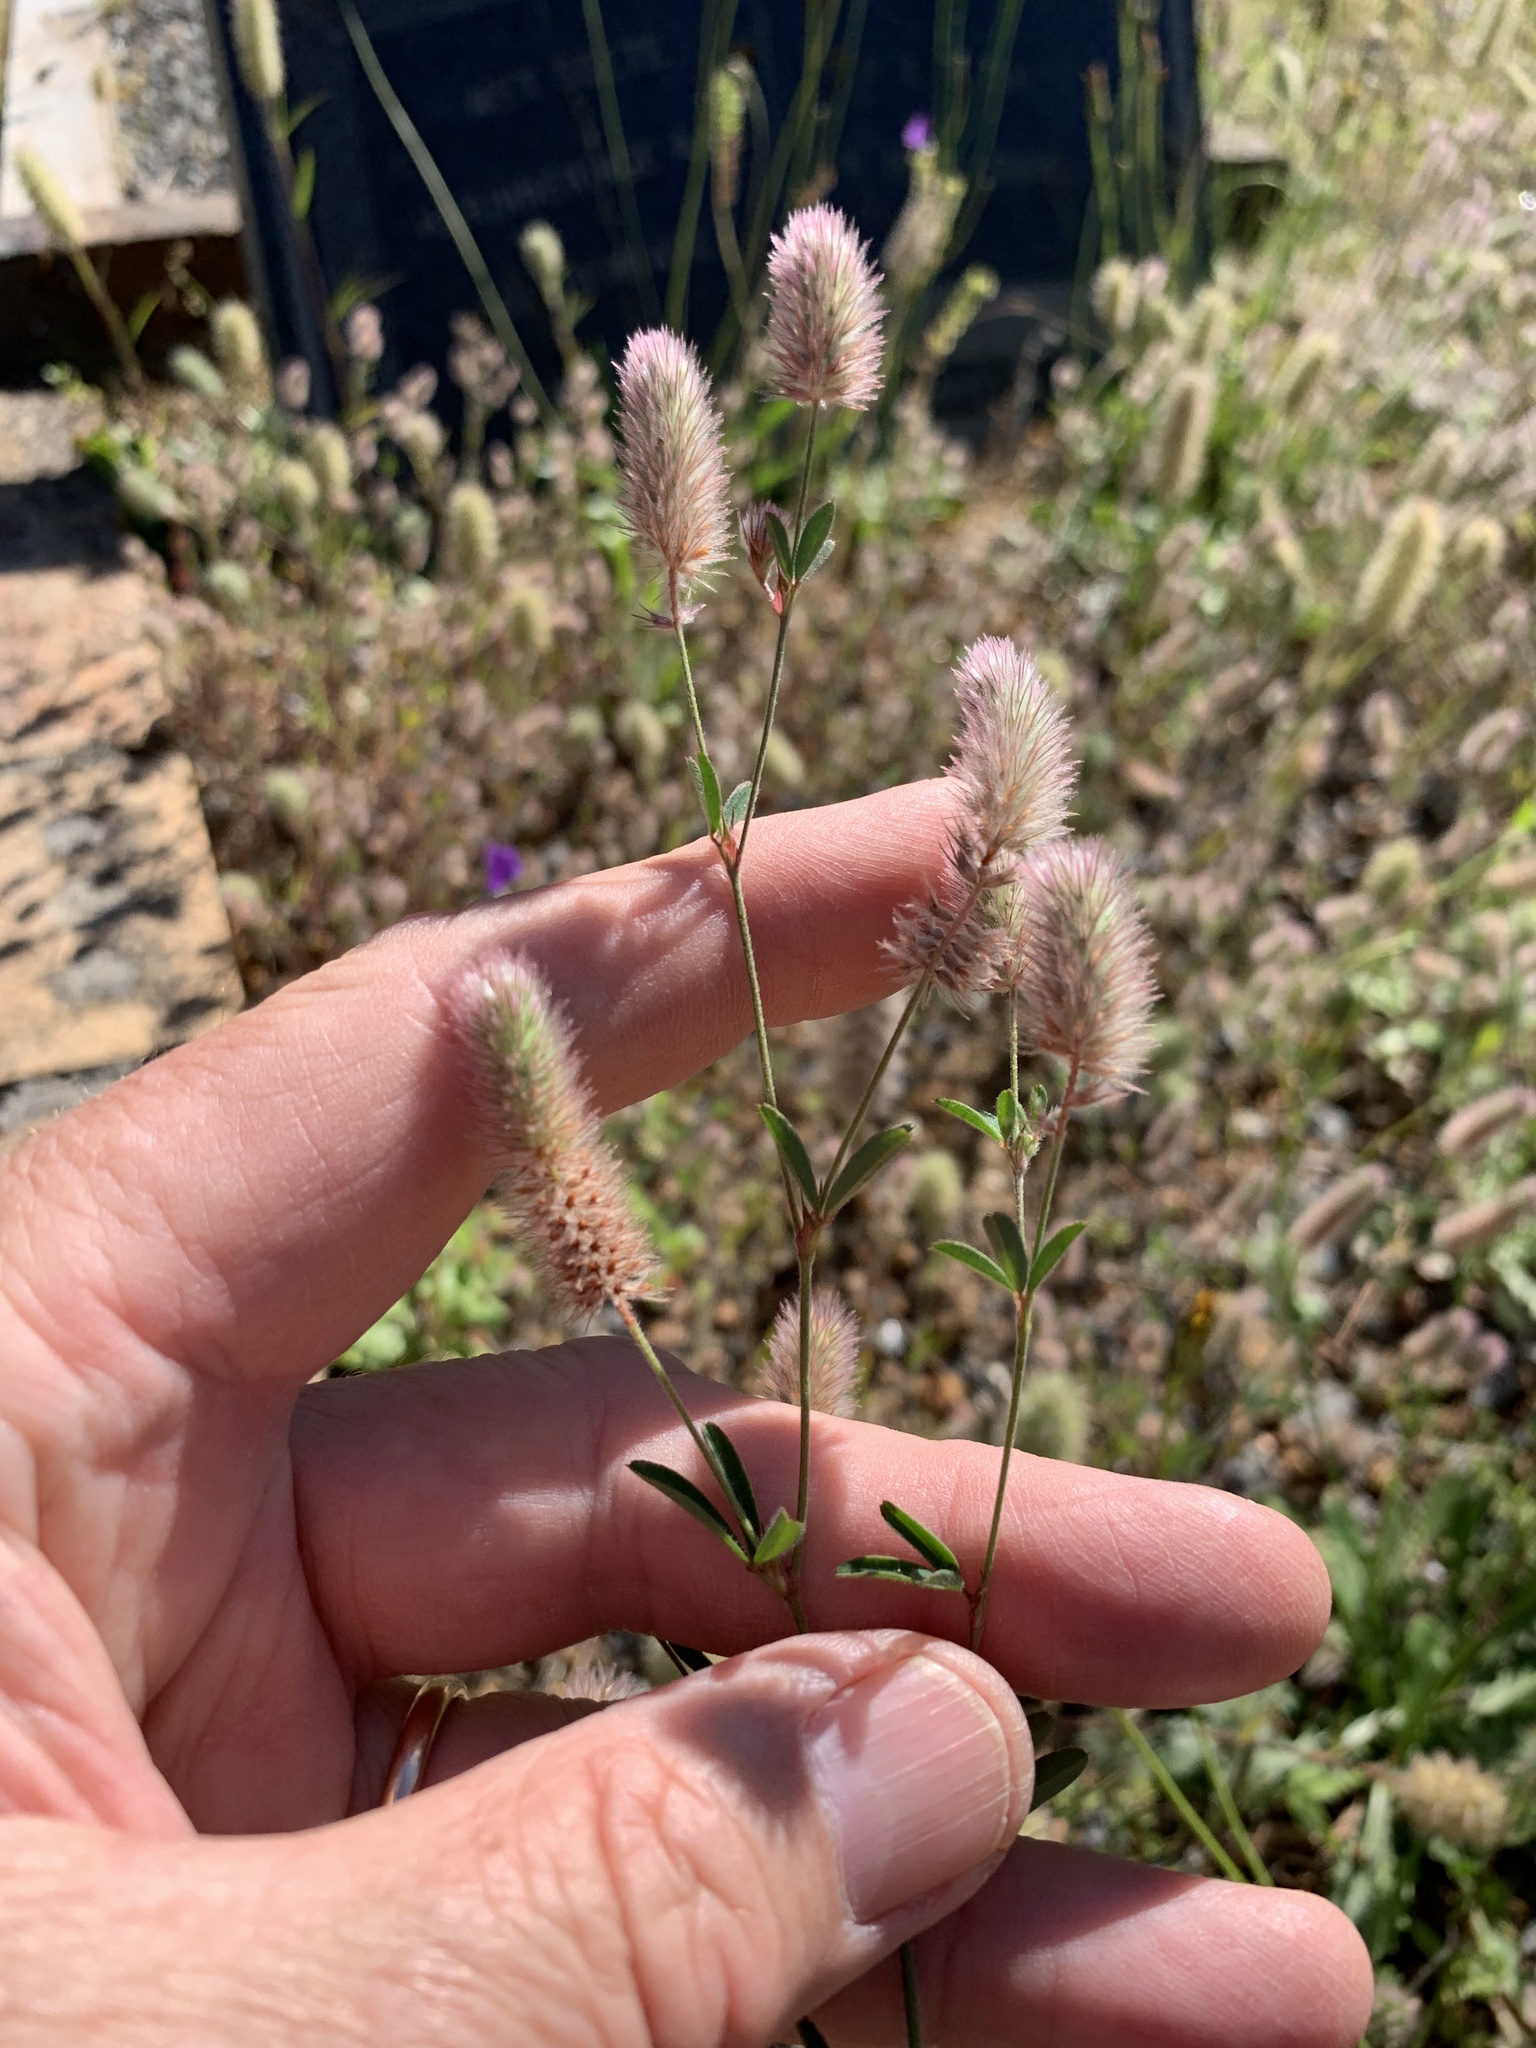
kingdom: Plantae
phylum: Tracheophyta
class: Magnoliopsida
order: Fabales
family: Fabaceae
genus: Trifolium
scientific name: Trifolium arvense
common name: Hare's-foot clover
